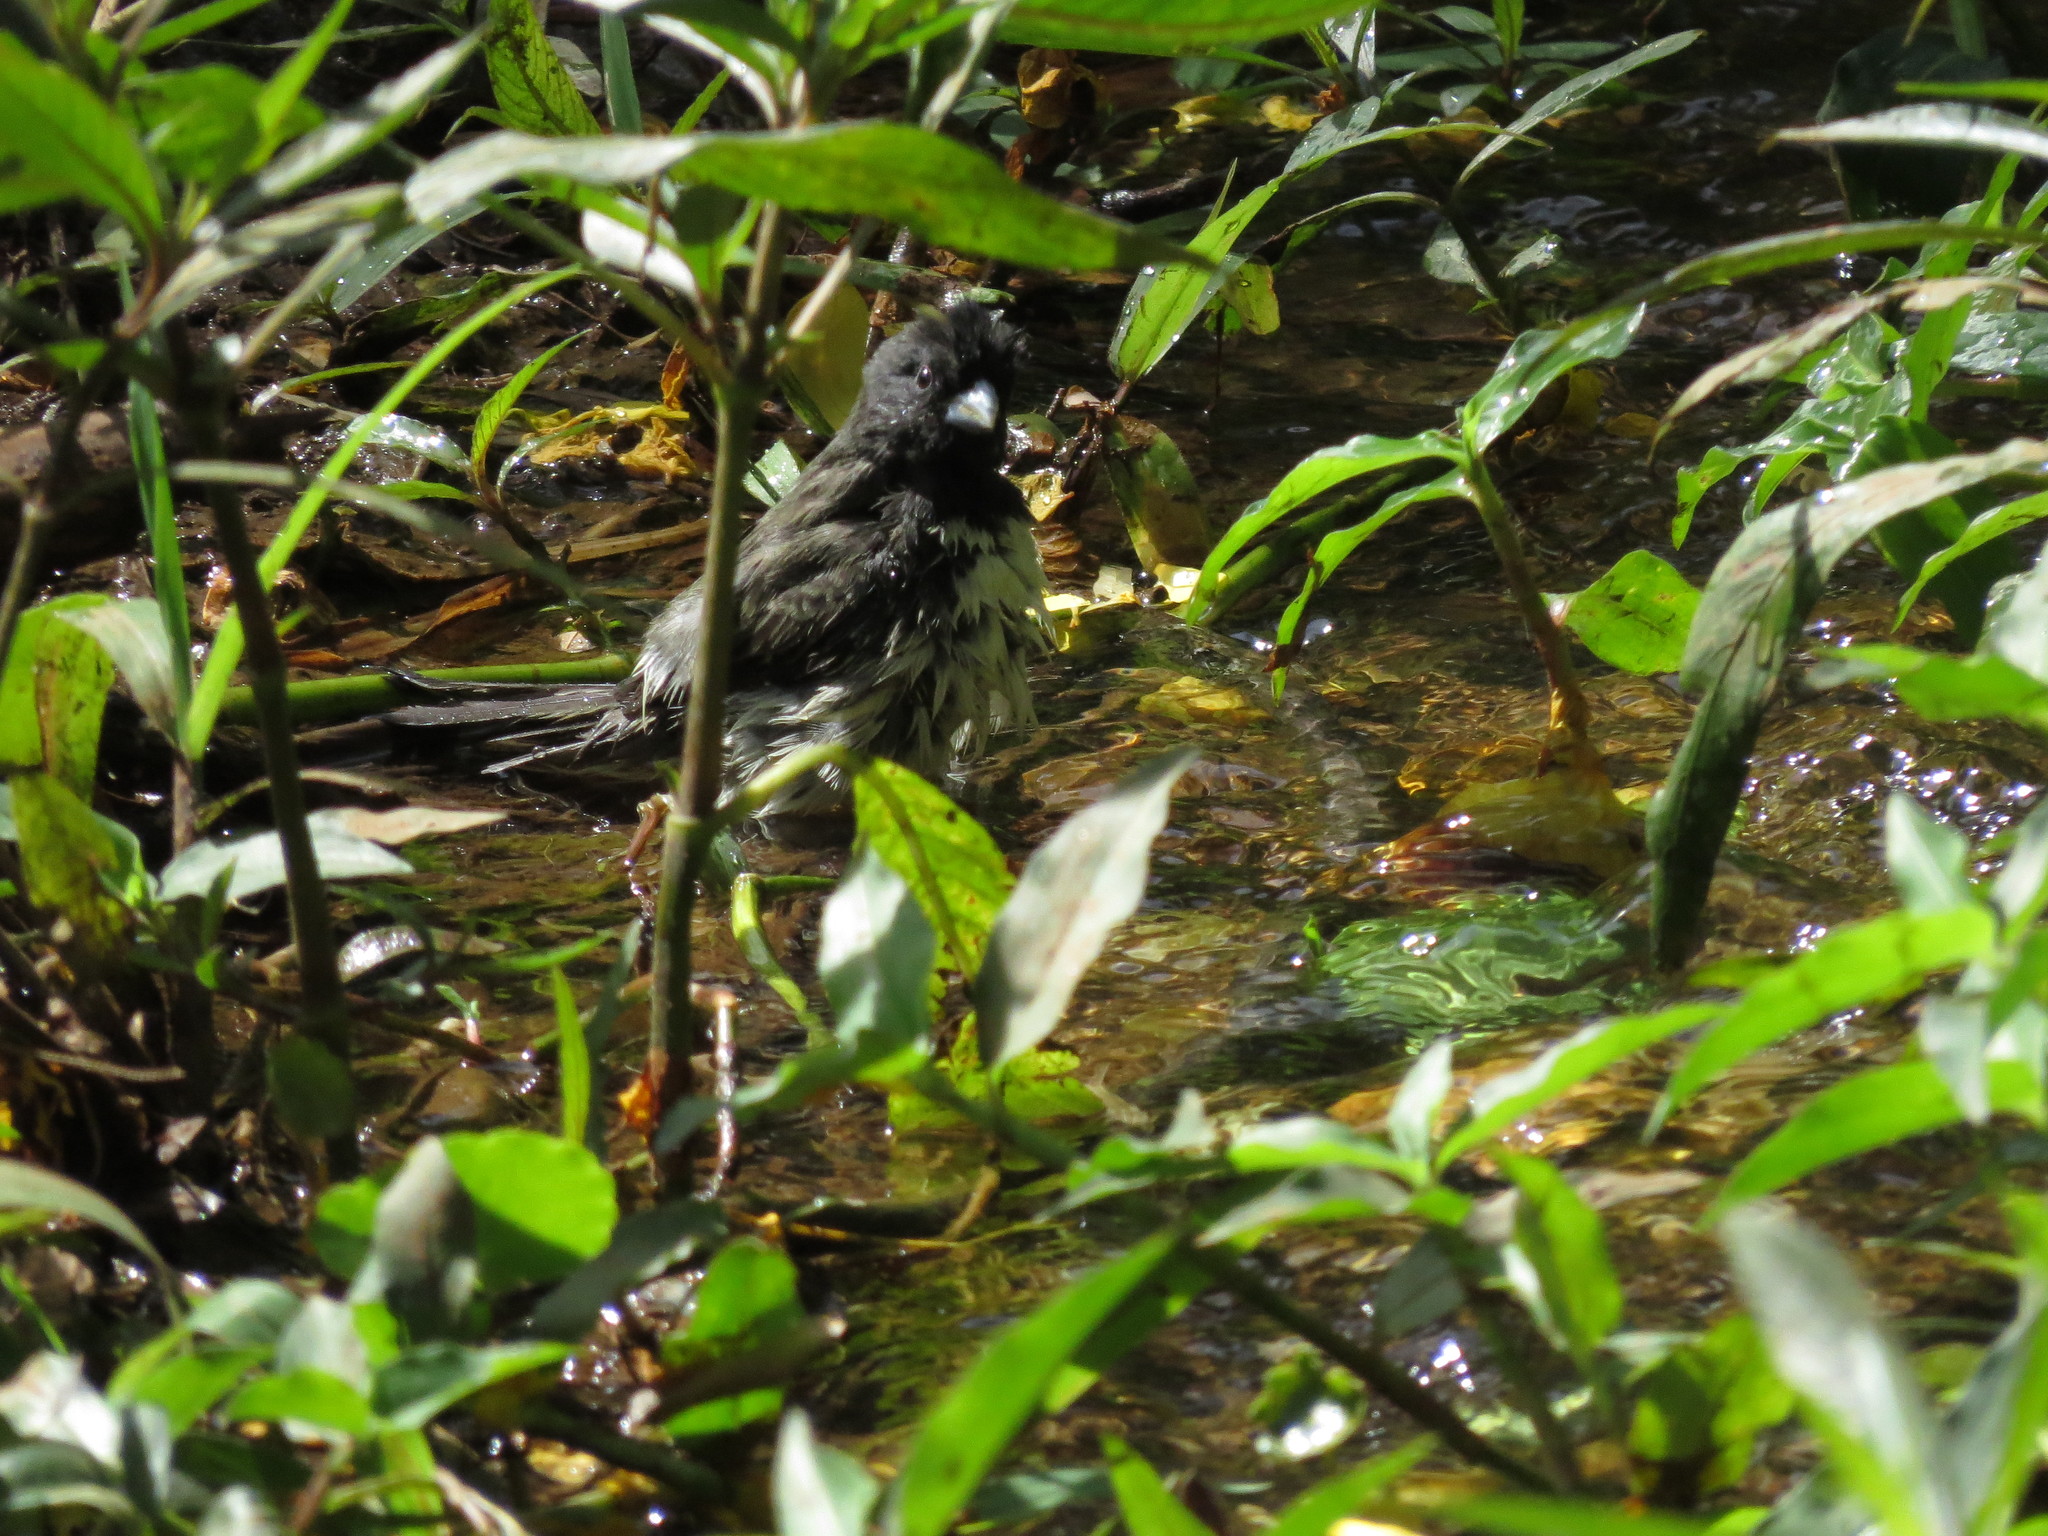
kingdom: Animalia
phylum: Chordata
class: Aves
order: Passeriformes
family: Thraupidae
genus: Sporophila
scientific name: Sporophila nigricollis
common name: Yellow-bellied seedeater
